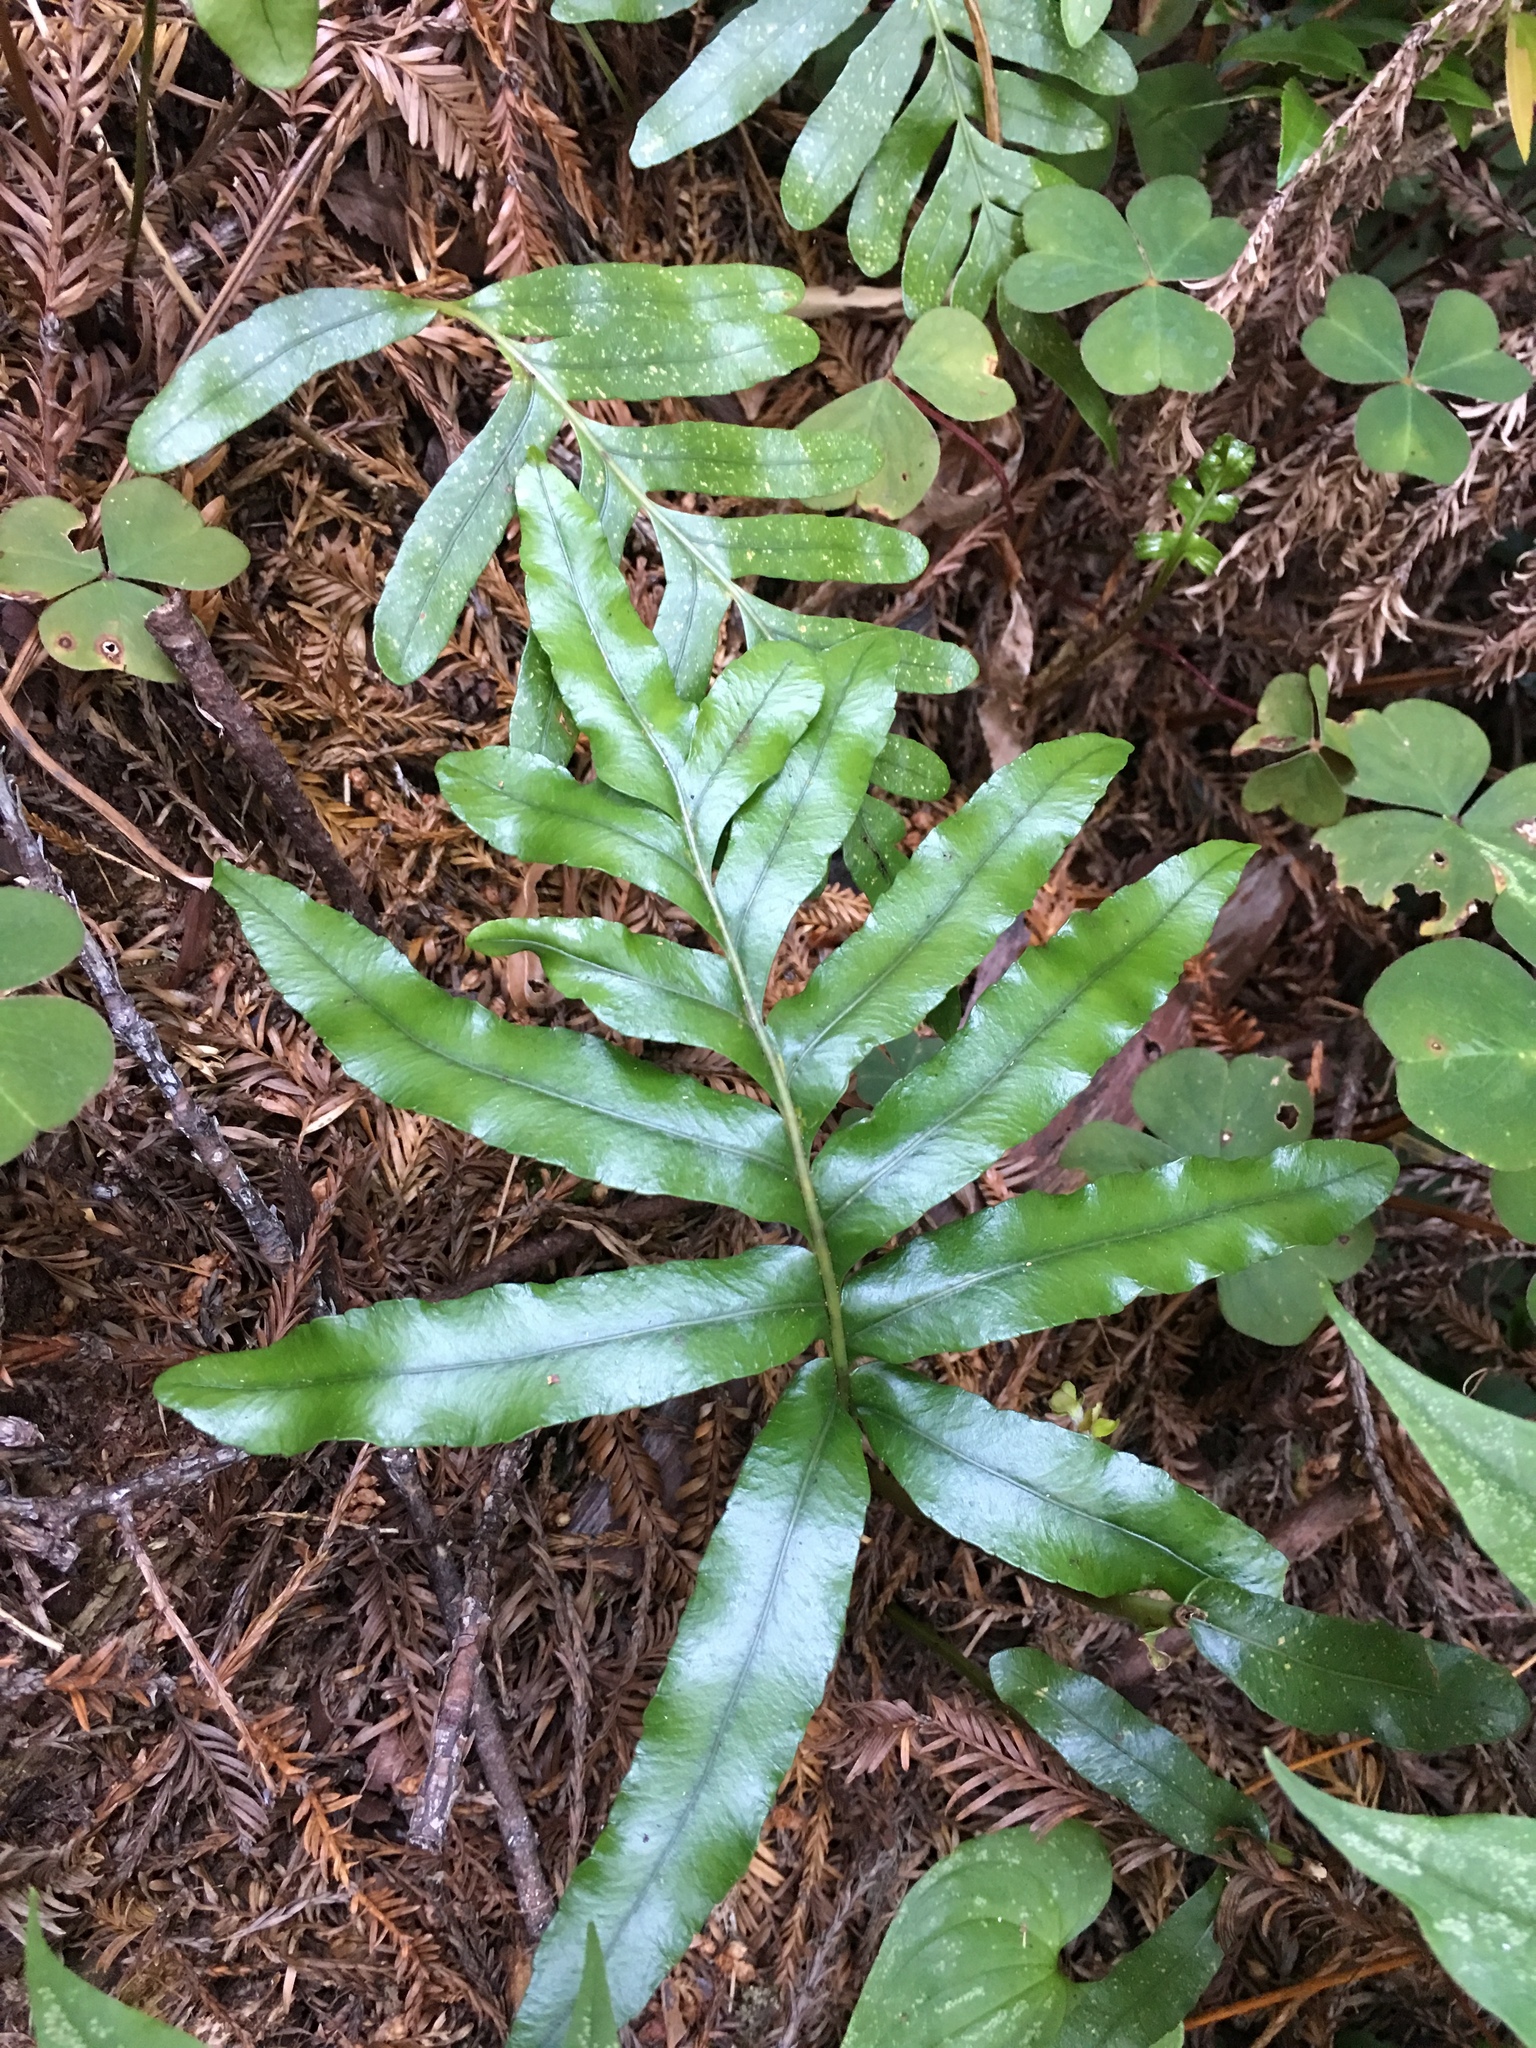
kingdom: Plantae
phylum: Tracheophyta
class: Polypodiopsida
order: Polypodiales
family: Polypodiaceae
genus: Polypodium
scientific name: Polypodium scouleri
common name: Scouler's polypody
